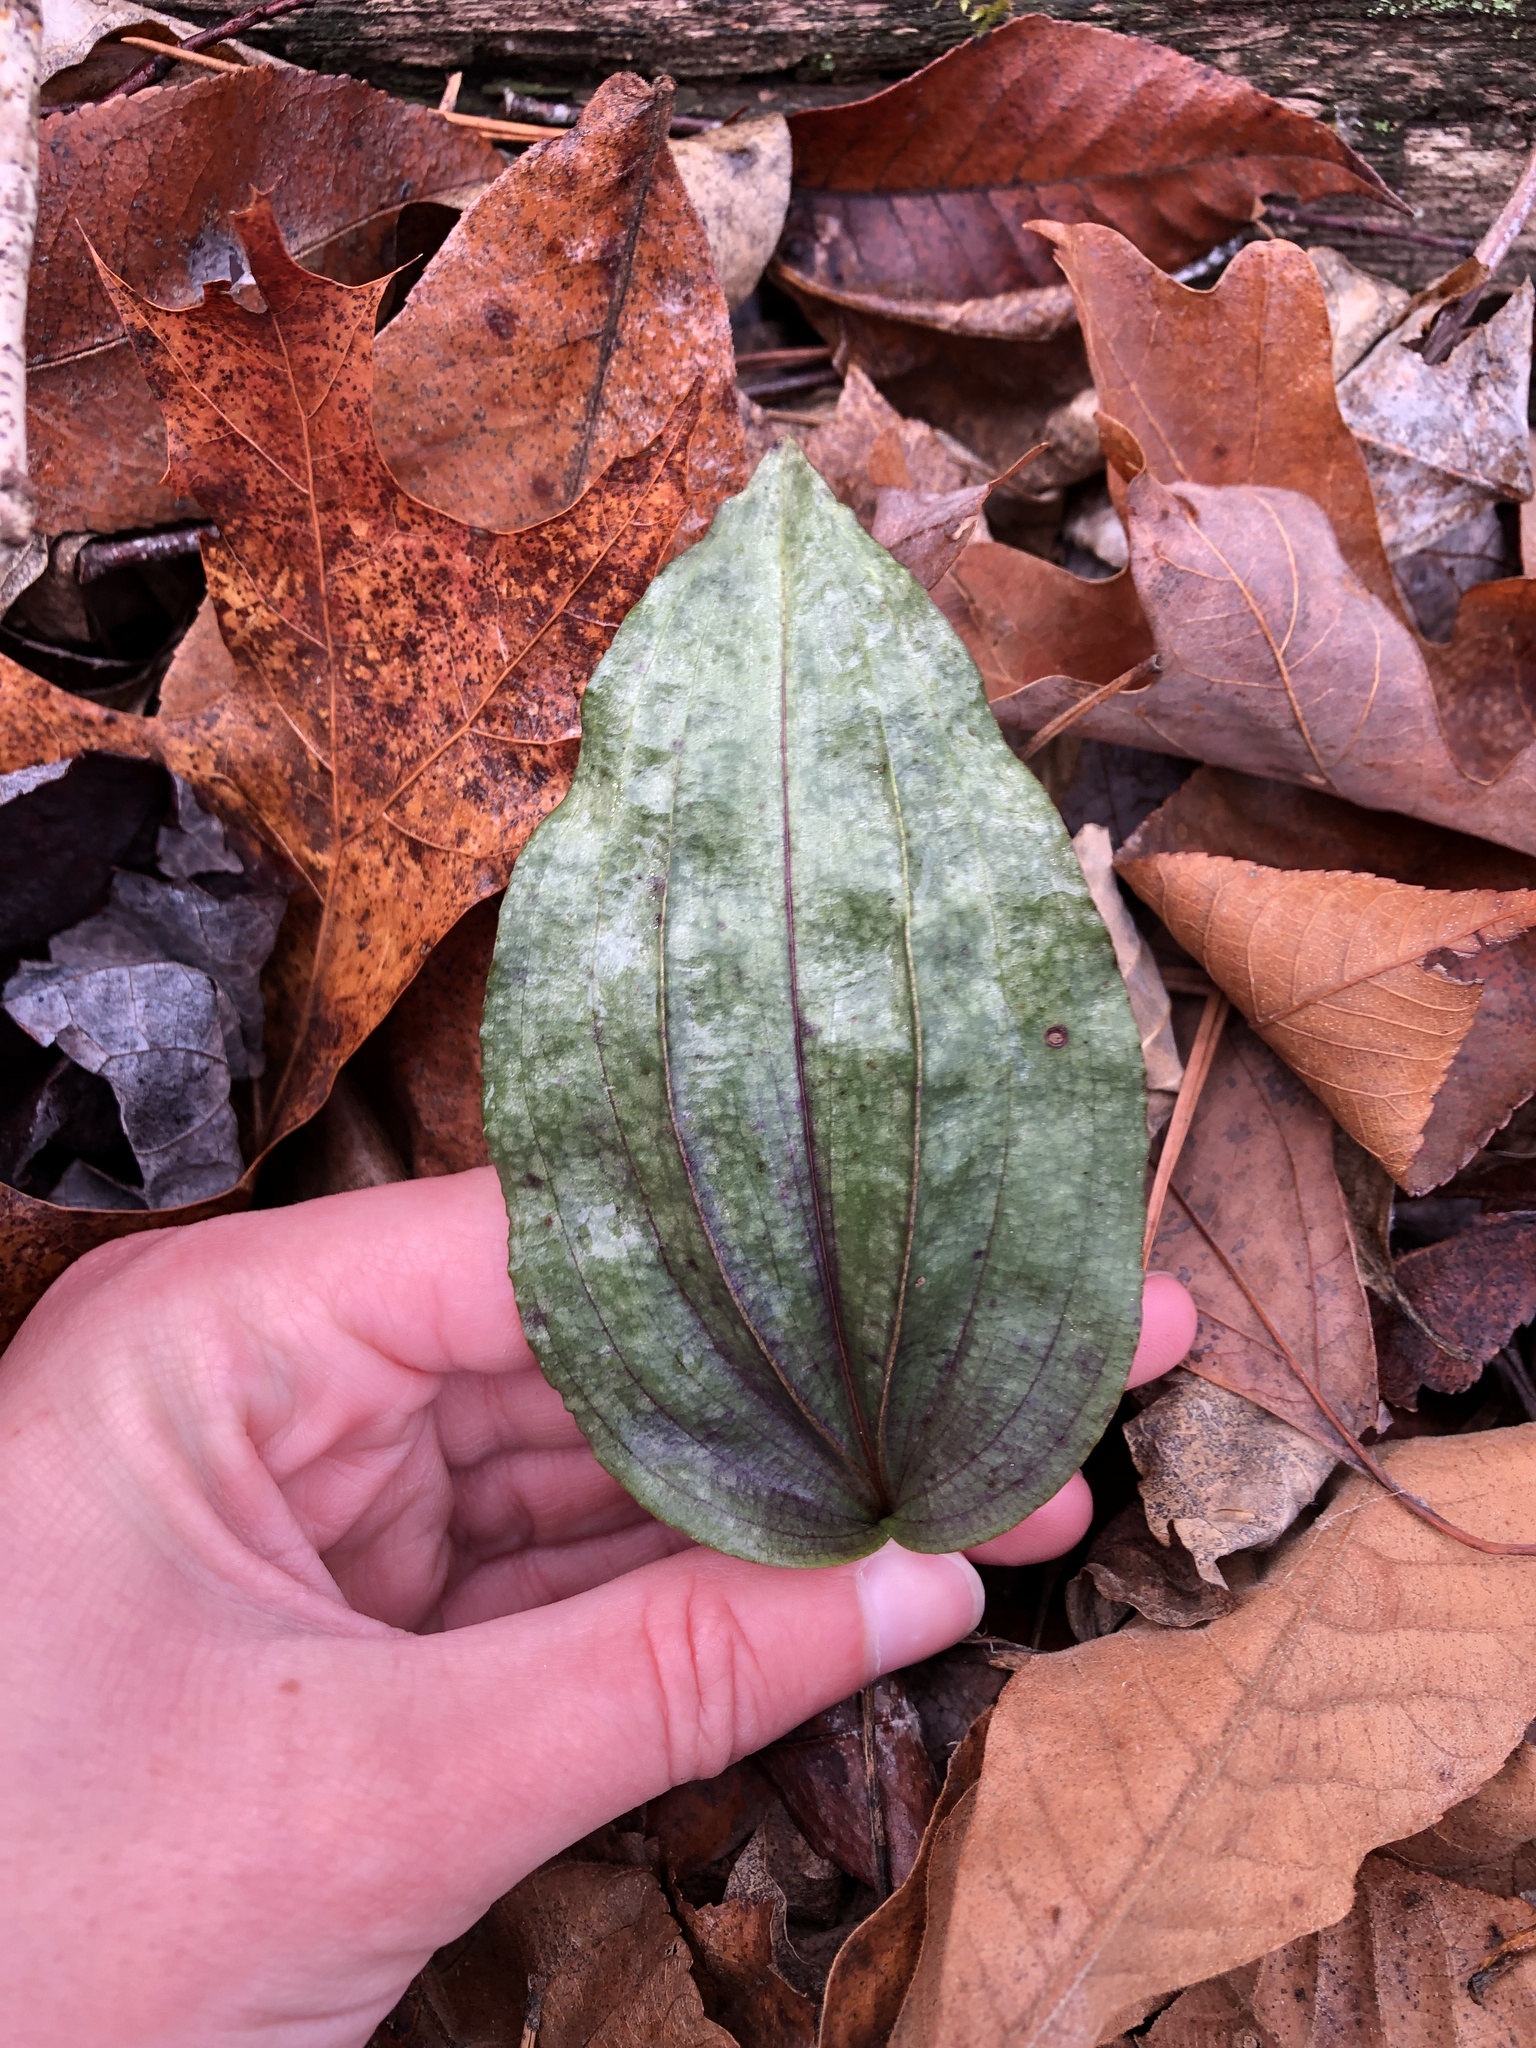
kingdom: Plantae
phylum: Tracheophyta
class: Liliopsida
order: Asparagales
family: Orchidaceae
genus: Tipularia
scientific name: Tipularia discolor
